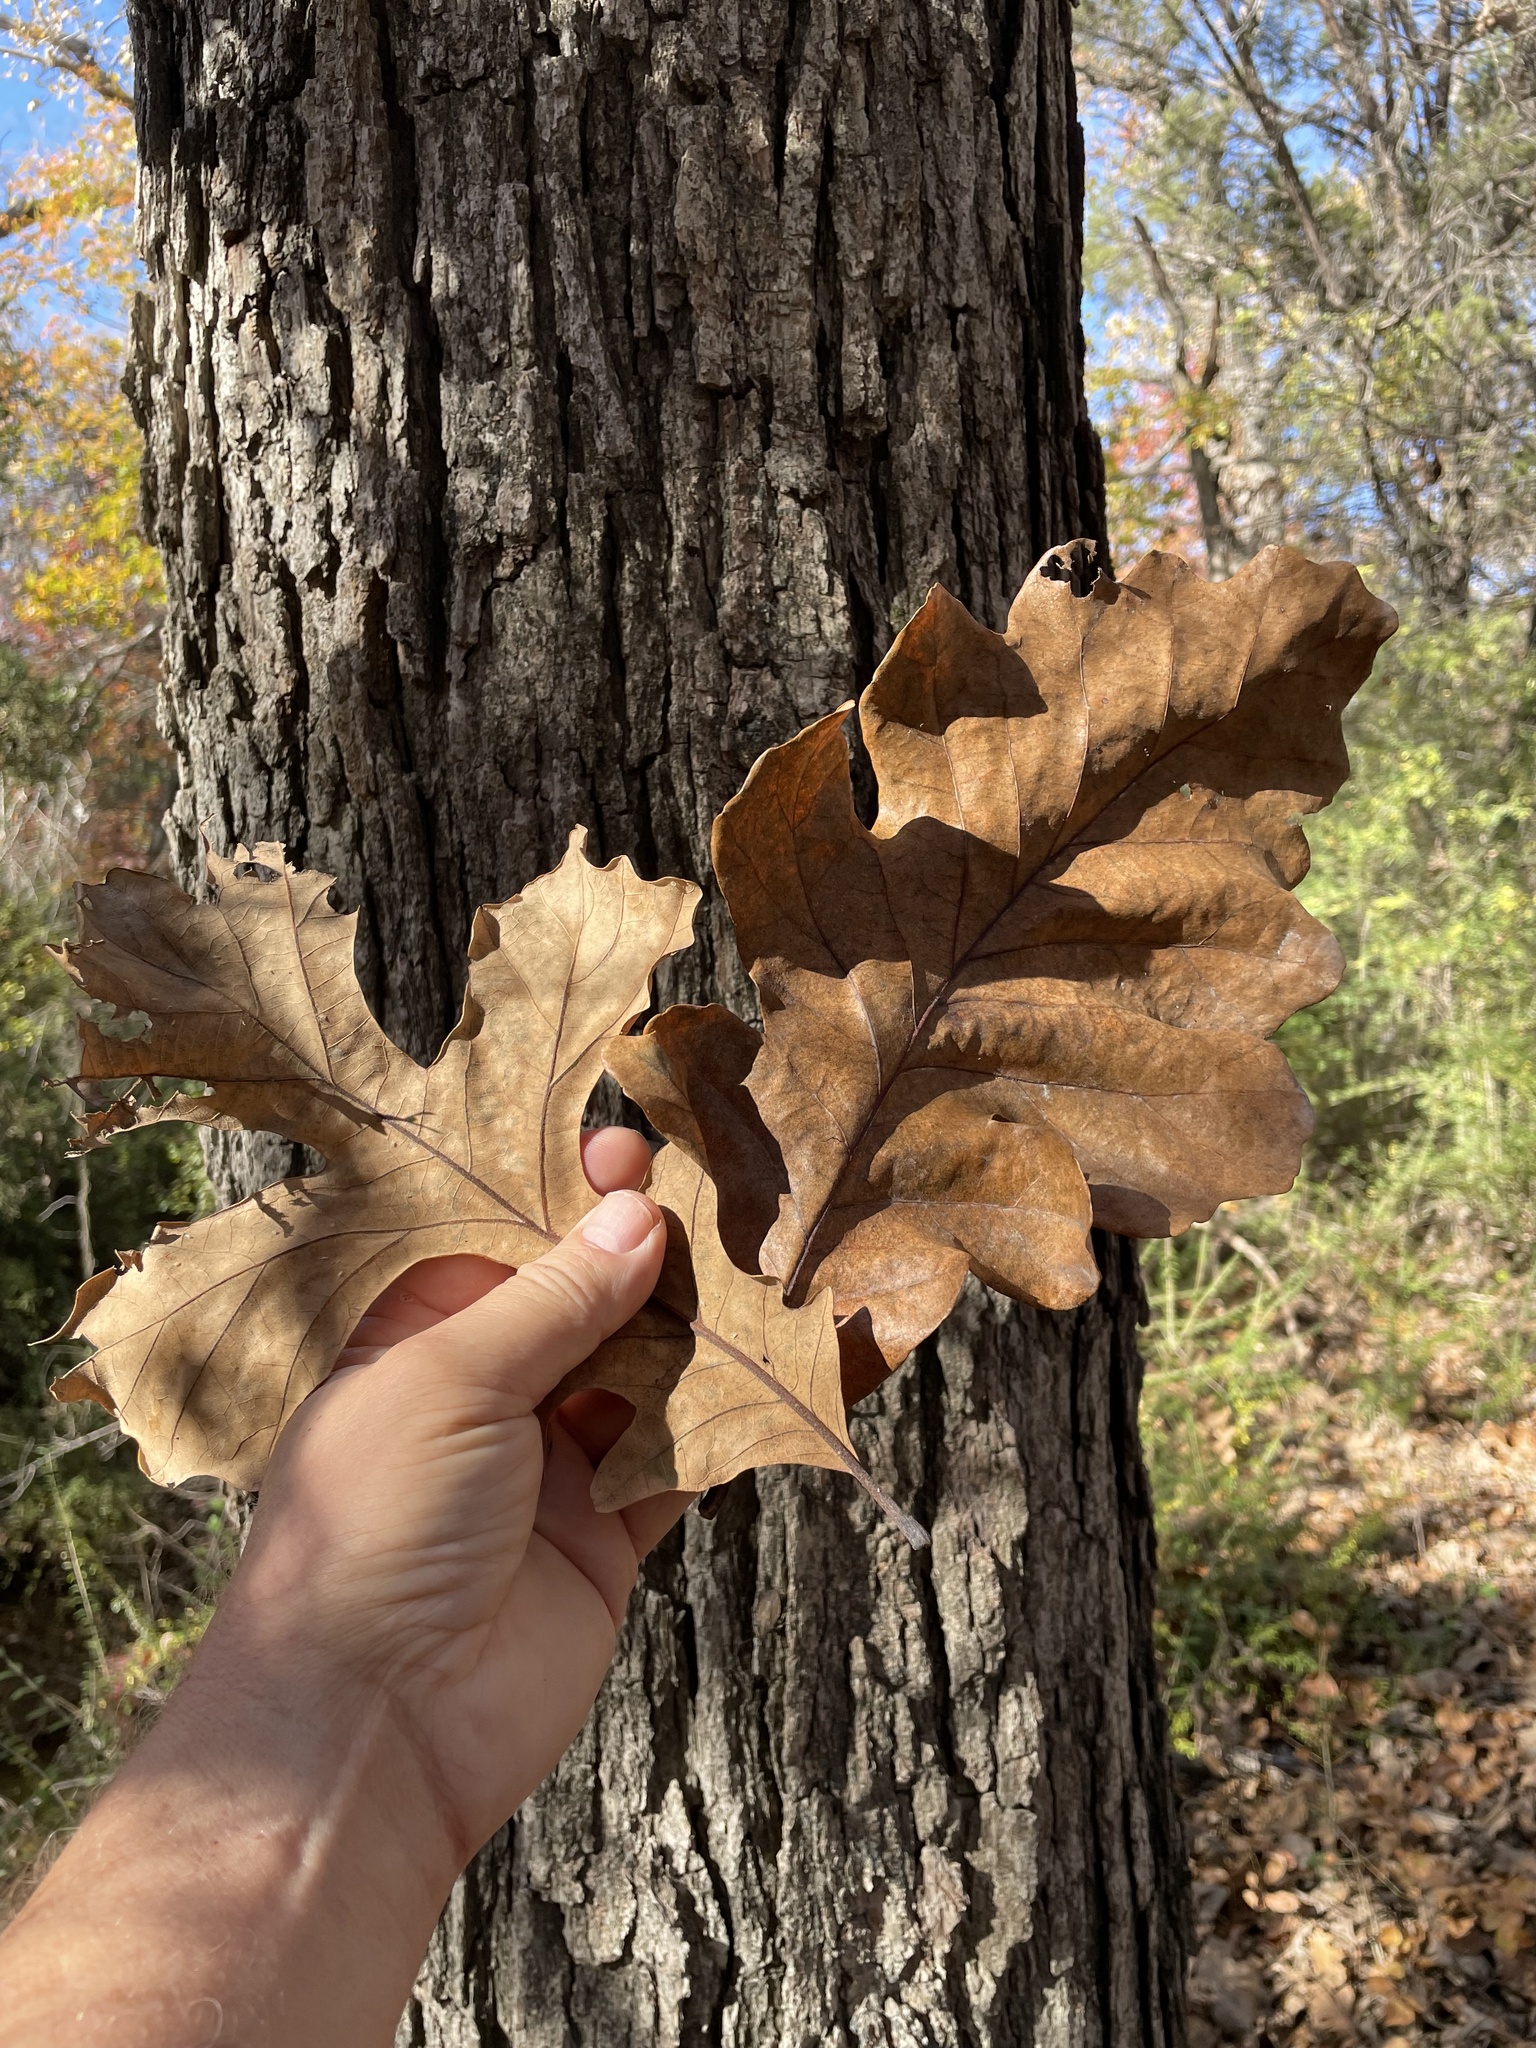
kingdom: Plantae
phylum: Tracheophyta
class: Magnoliopsida
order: Fagales
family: Fagaceae
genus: Quercus
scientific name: Quercus macrocarpa
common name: Bur oak
